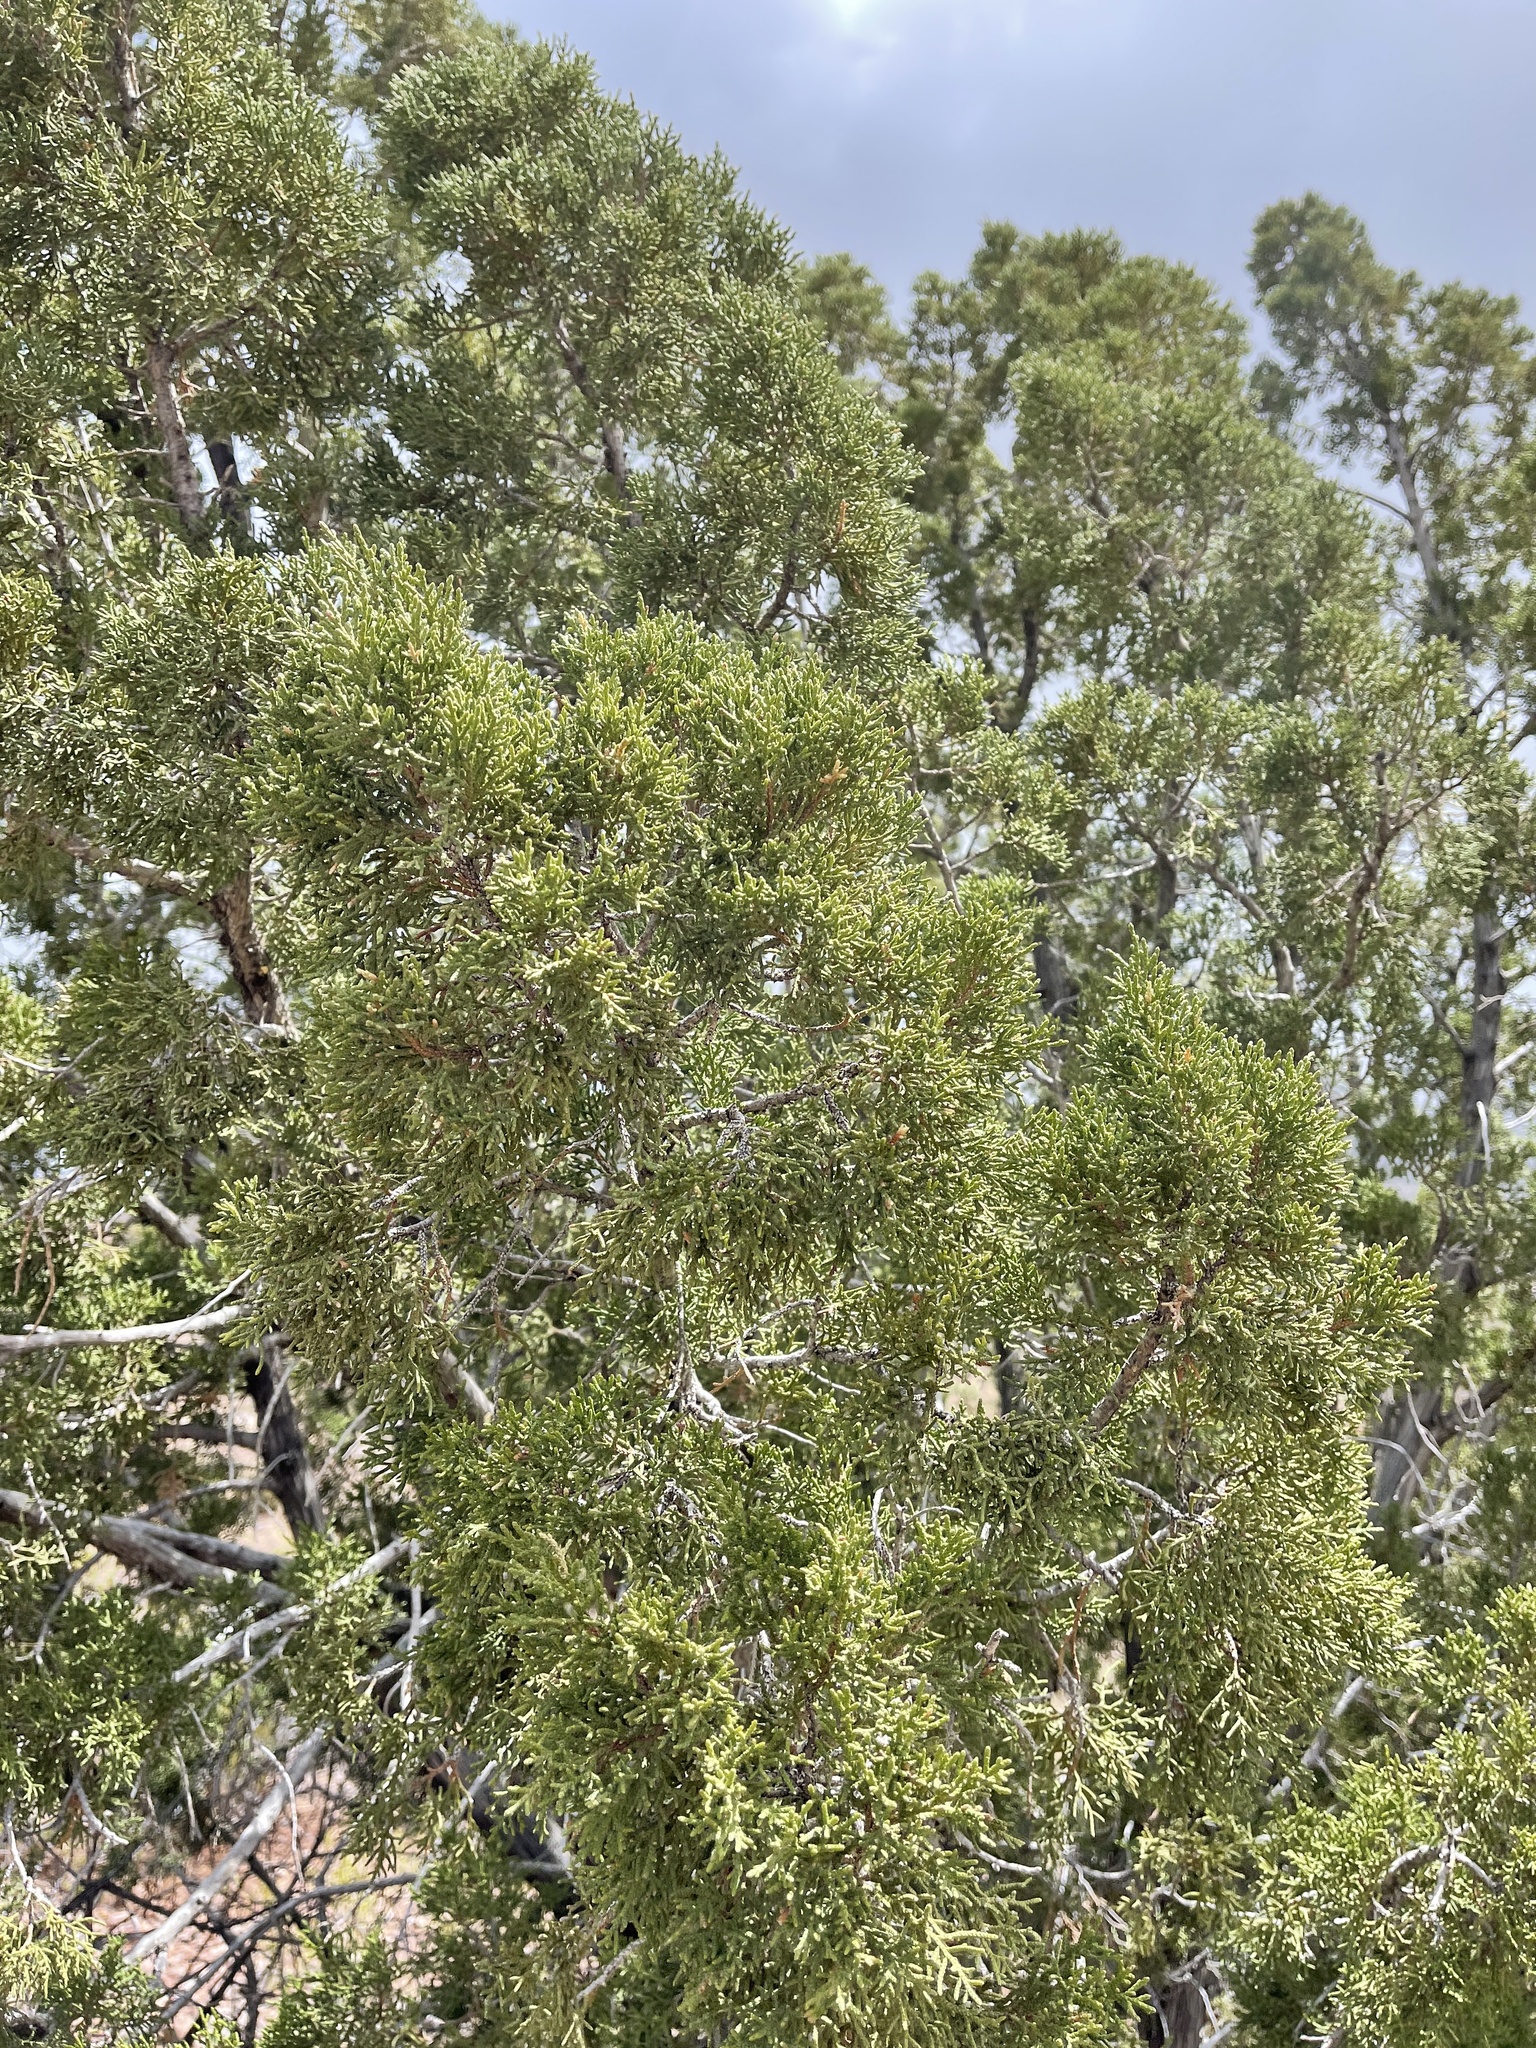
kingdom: Plantae
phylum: Tracheophyta
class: Pinopsida
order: Pinales
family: Cupressaceae
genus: Juniperus
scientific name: Juniperus monosperma
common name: One-seed juniper
